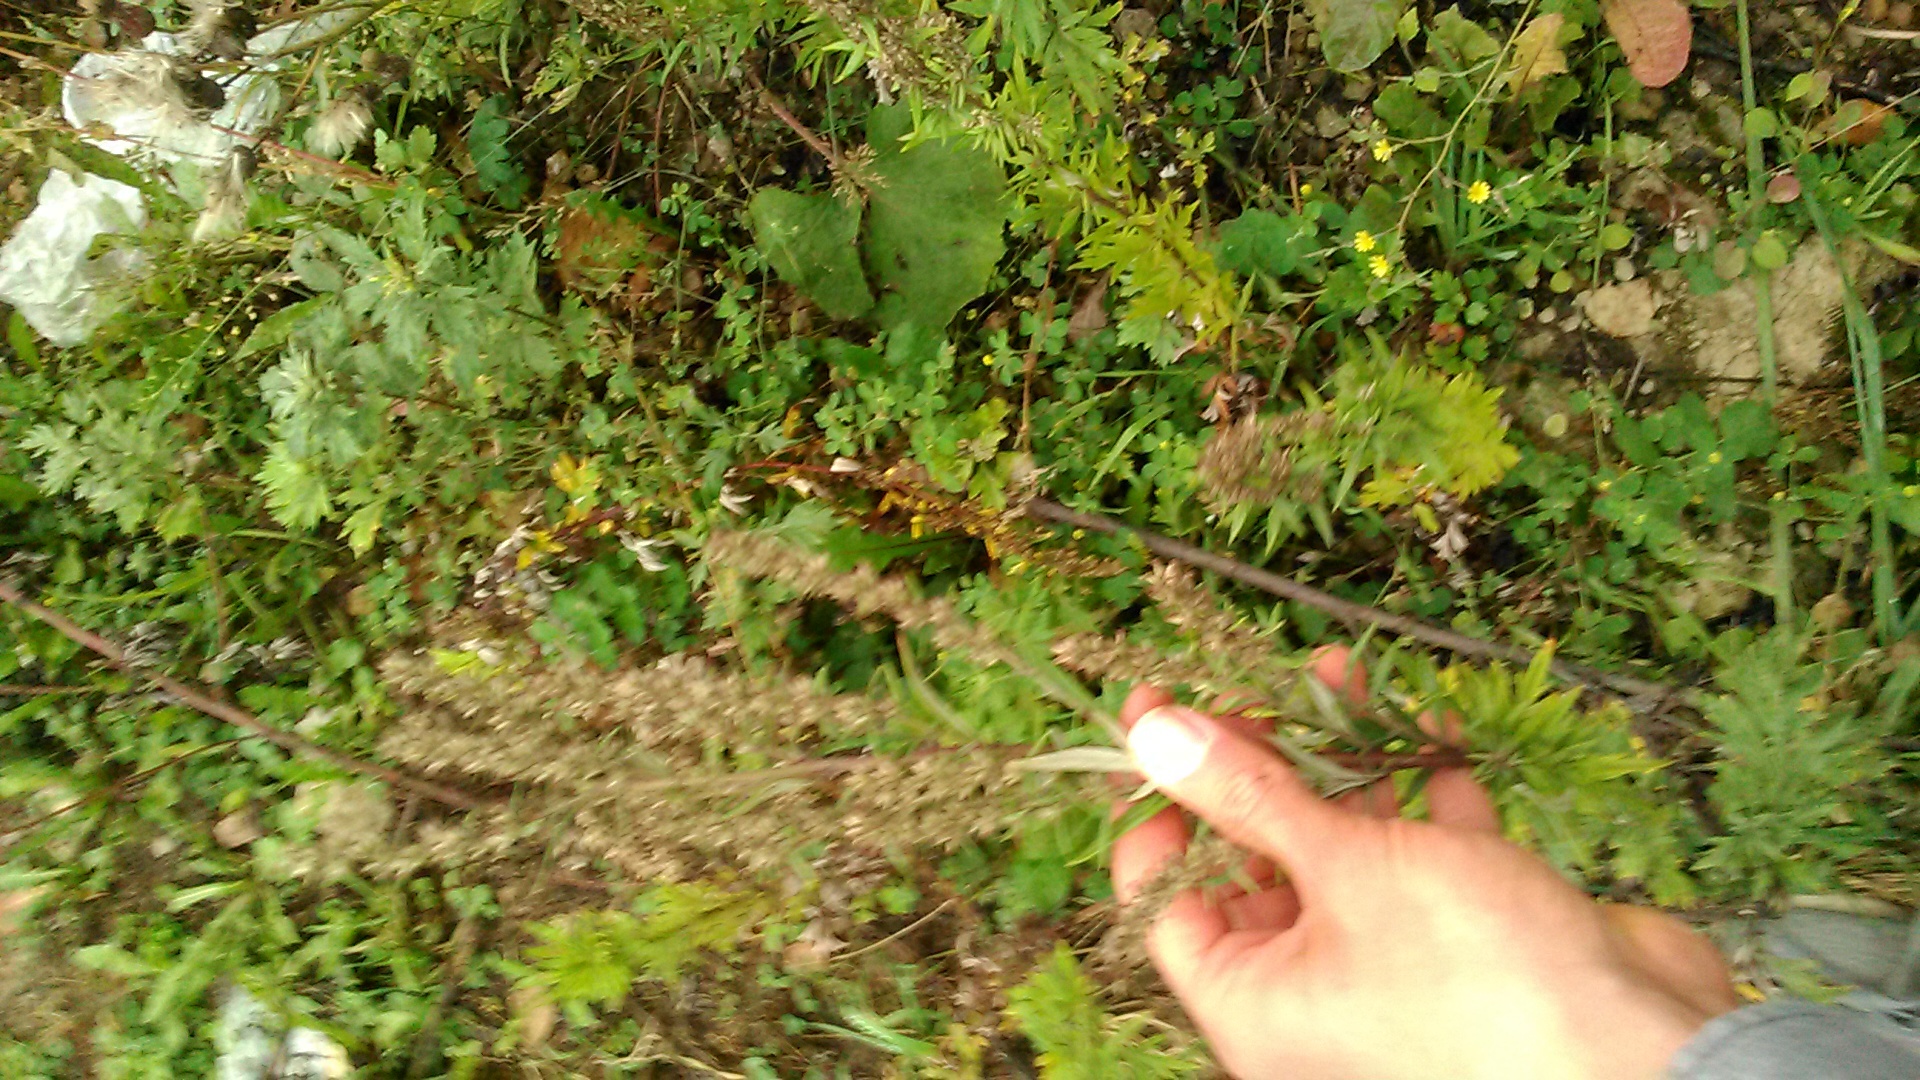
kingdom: Plantae
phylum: Tracheophyta
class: Magnoliopsida
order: Asterales
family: Asteraceae
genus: Artemisia
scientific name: Artemisia vulgaris
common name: Mugwort
